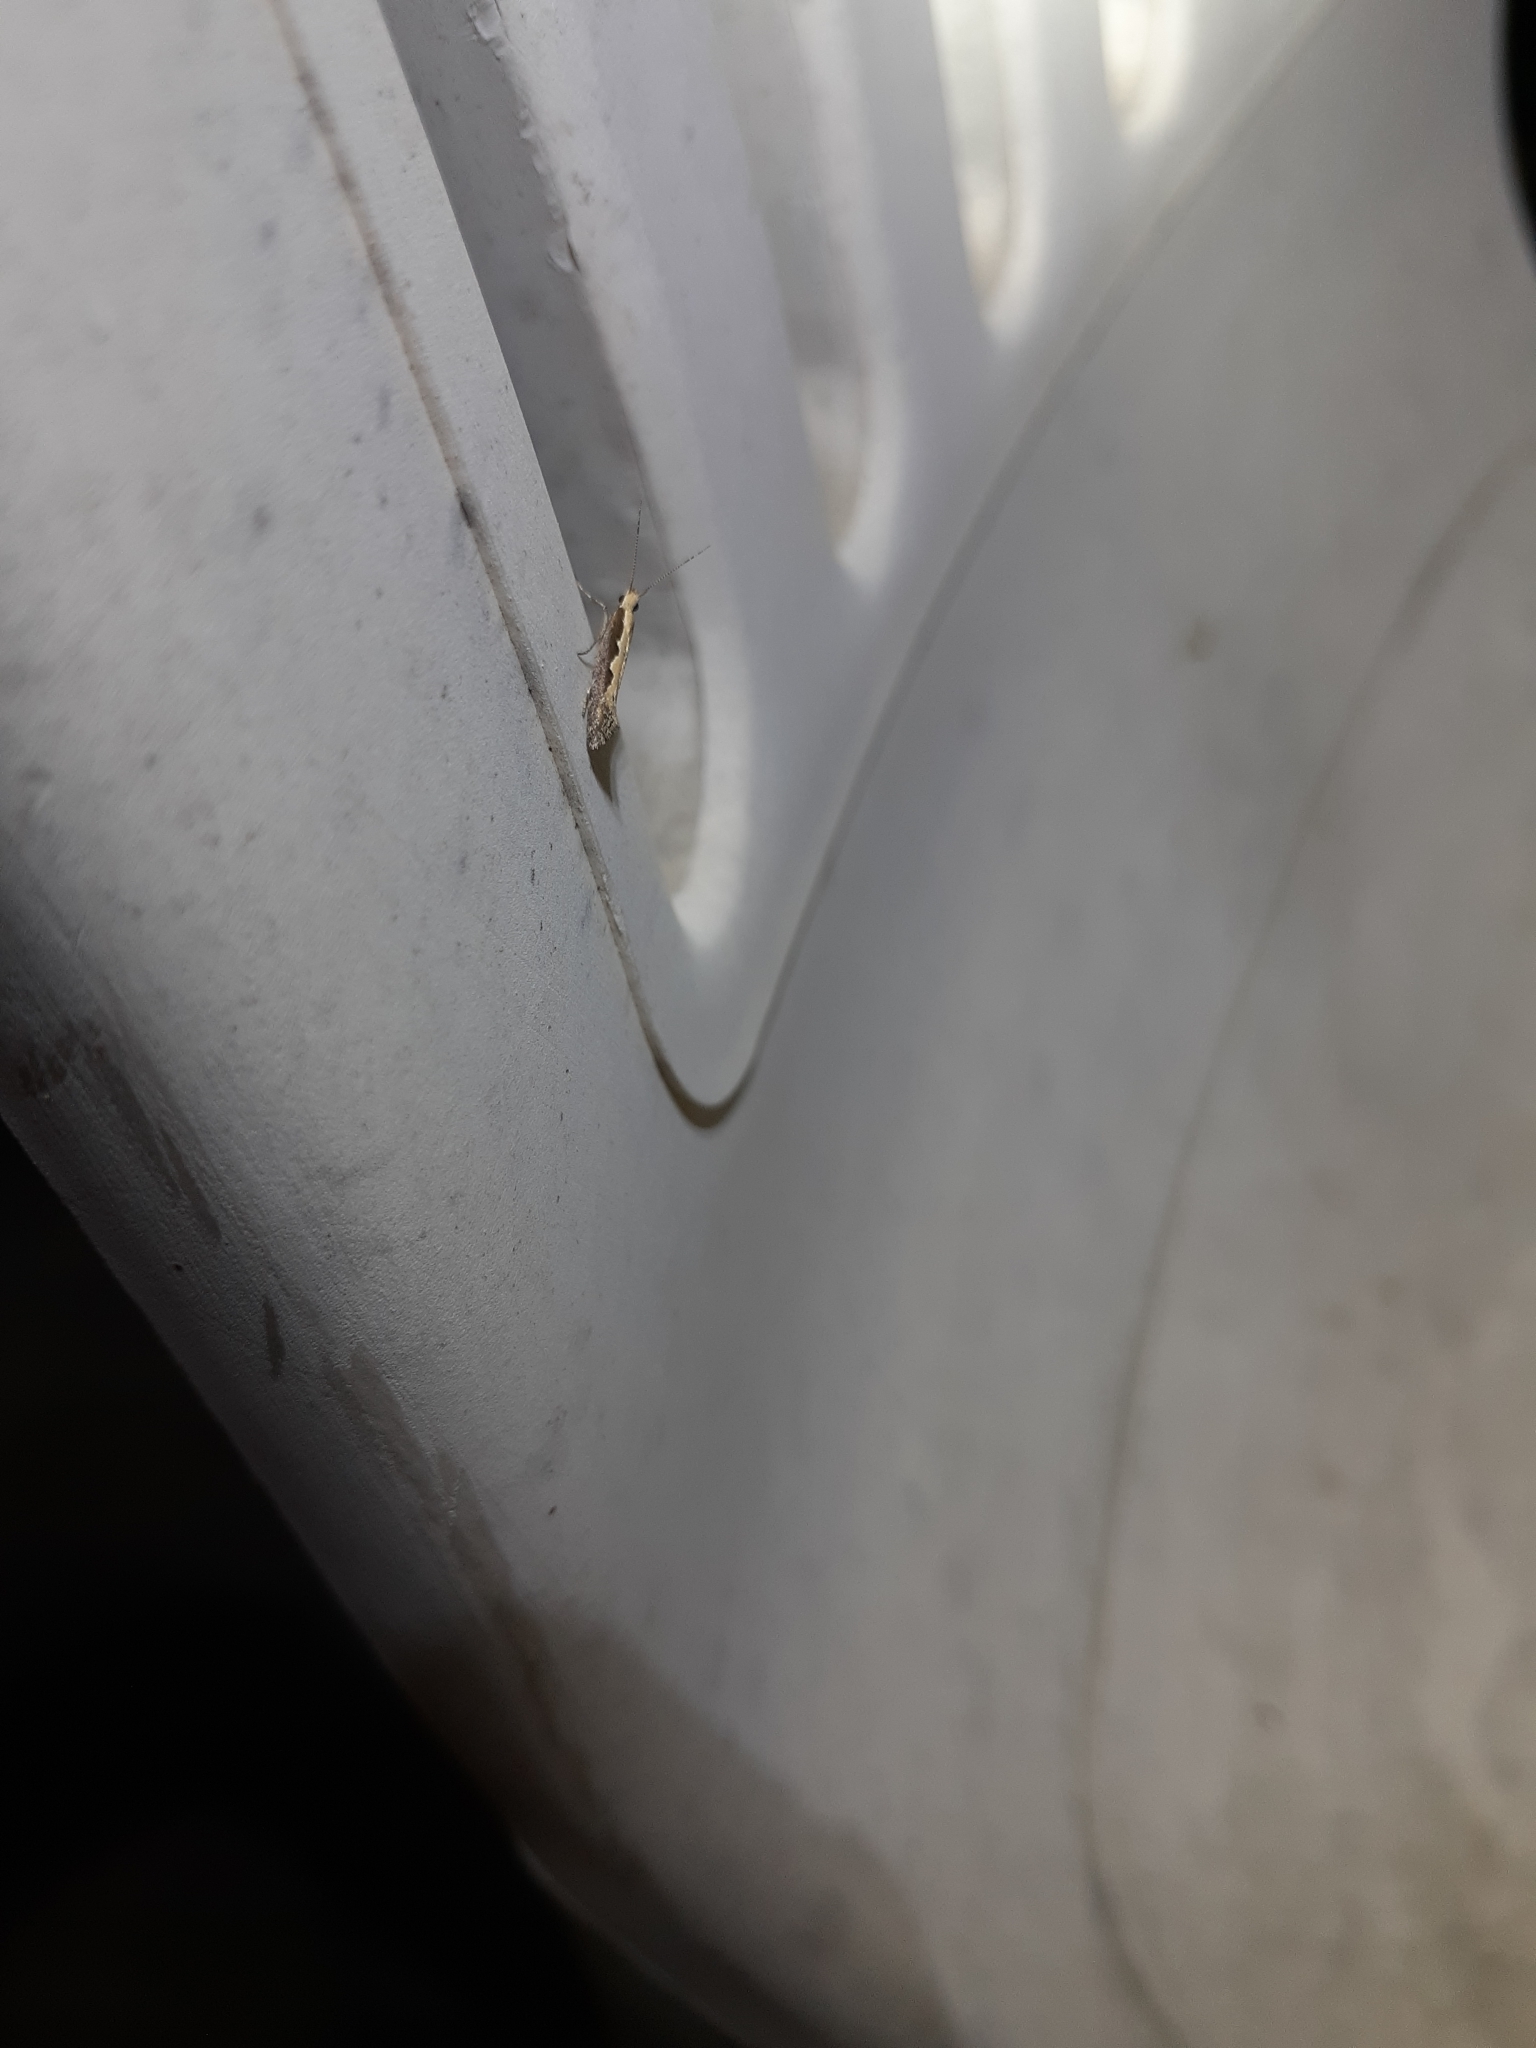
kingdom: Animalia
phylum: Arthropoda
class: Insecta
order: Lepidoptera
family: Plutellidae
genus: Plutella
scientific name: Plutella xylostella
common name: Diamond-back moth
